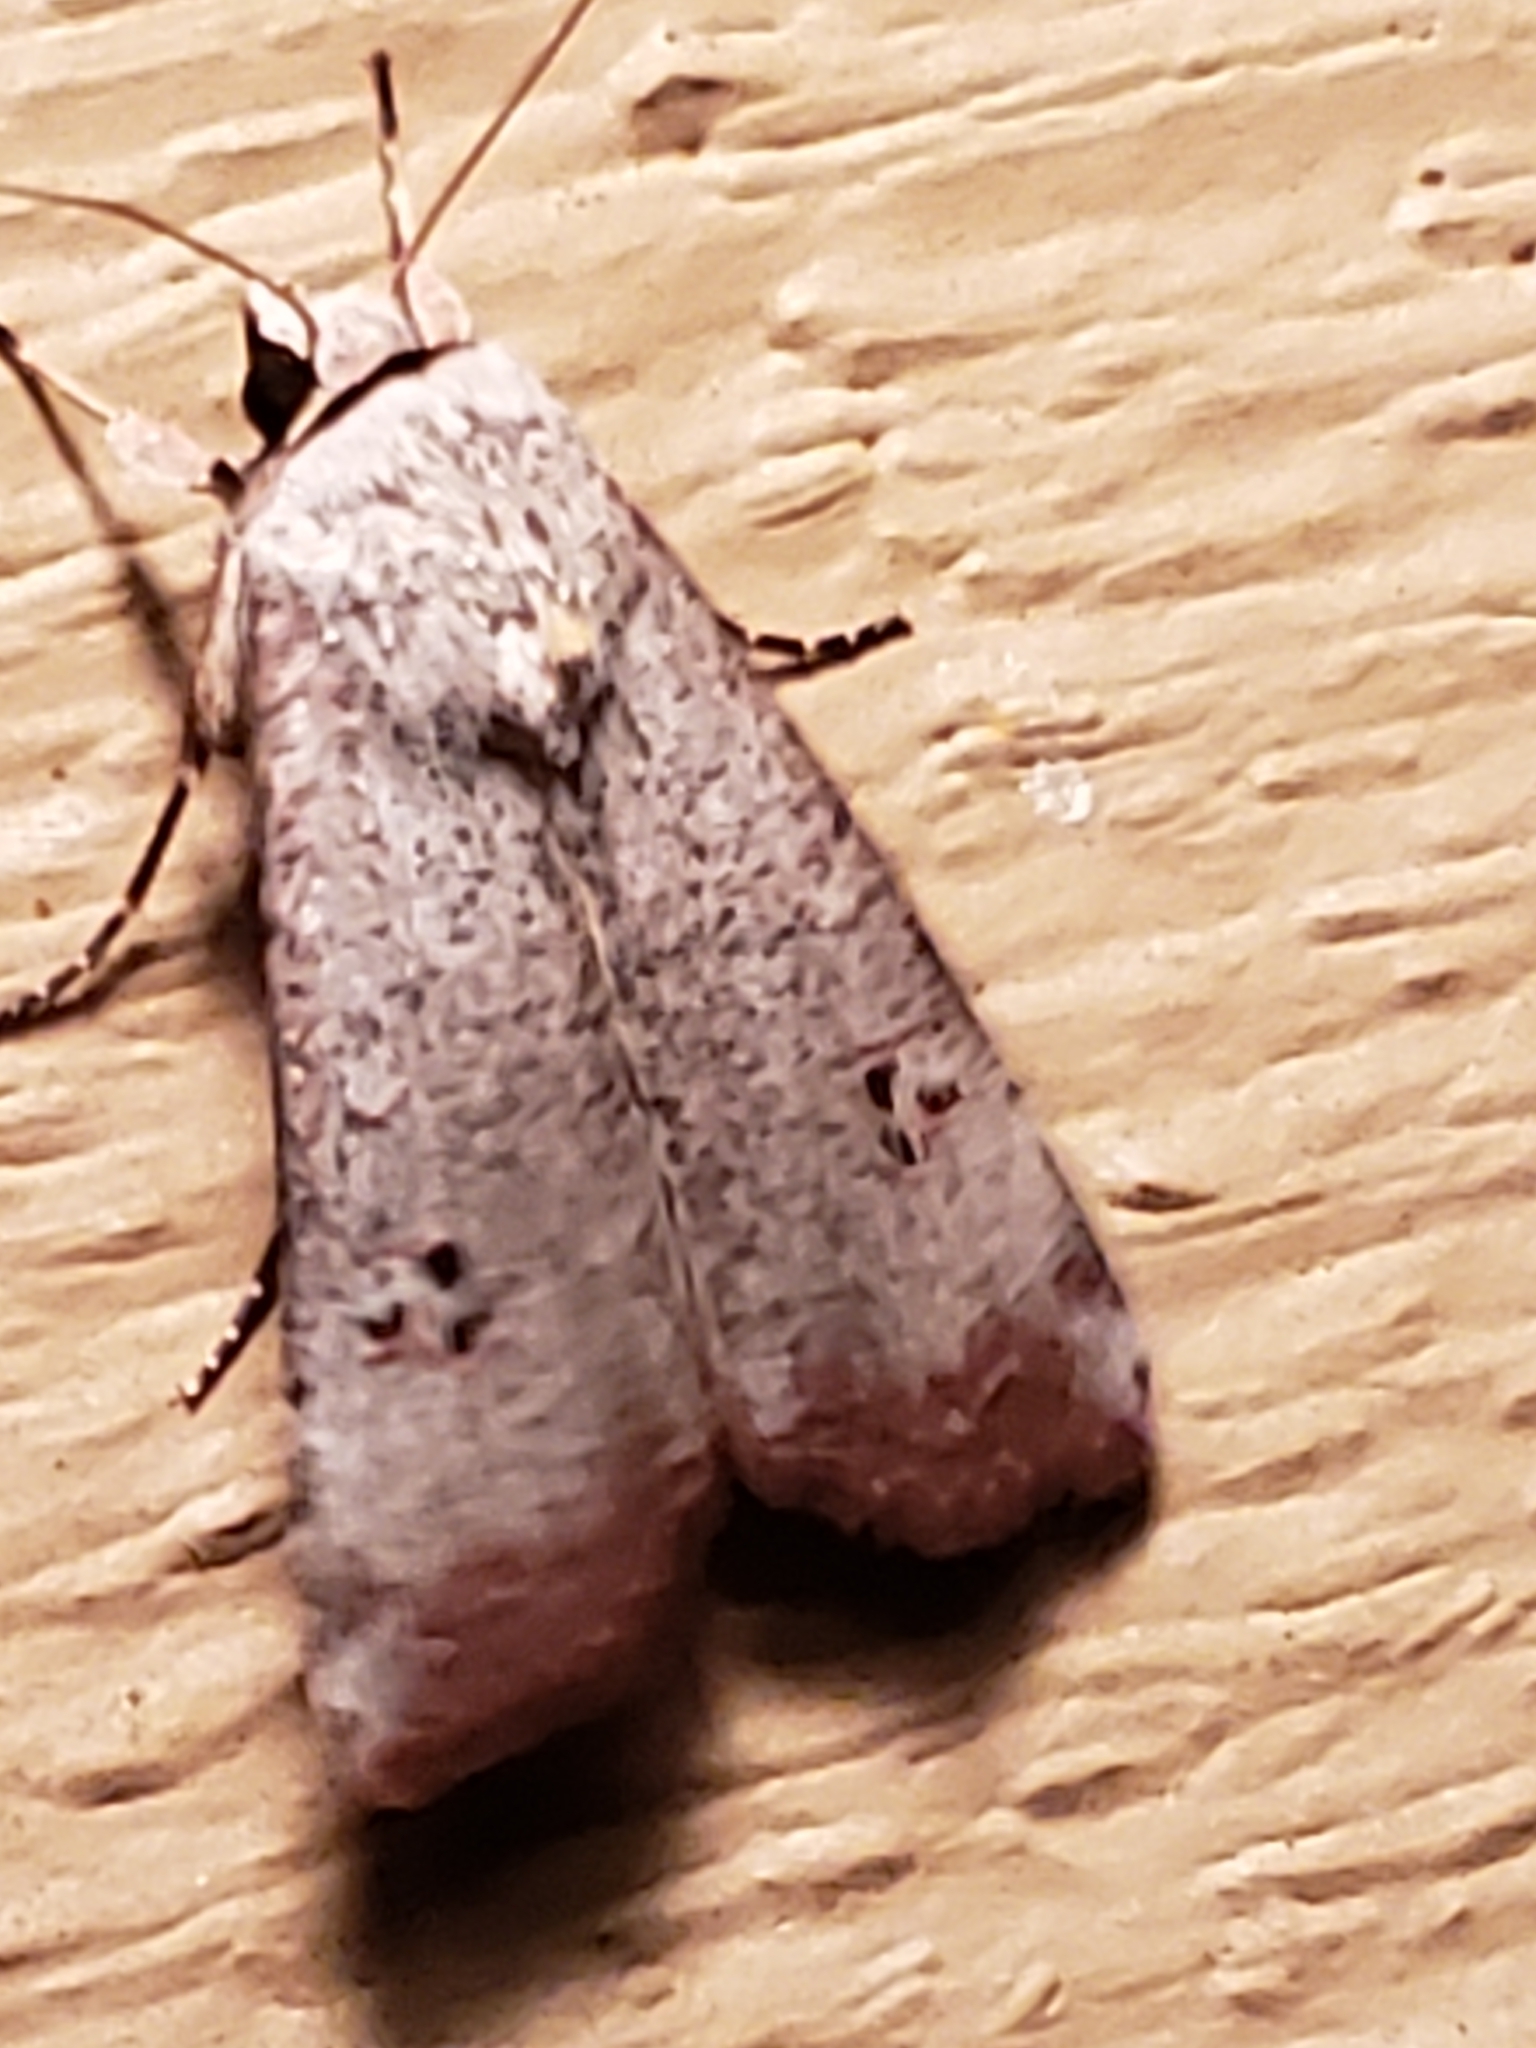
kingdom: Animalia
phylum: Arthropoda
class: Insecta
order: Lepidoptera
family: Noctuidae
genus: Anicla
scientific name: Anicla infecta
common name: Green cutworm
